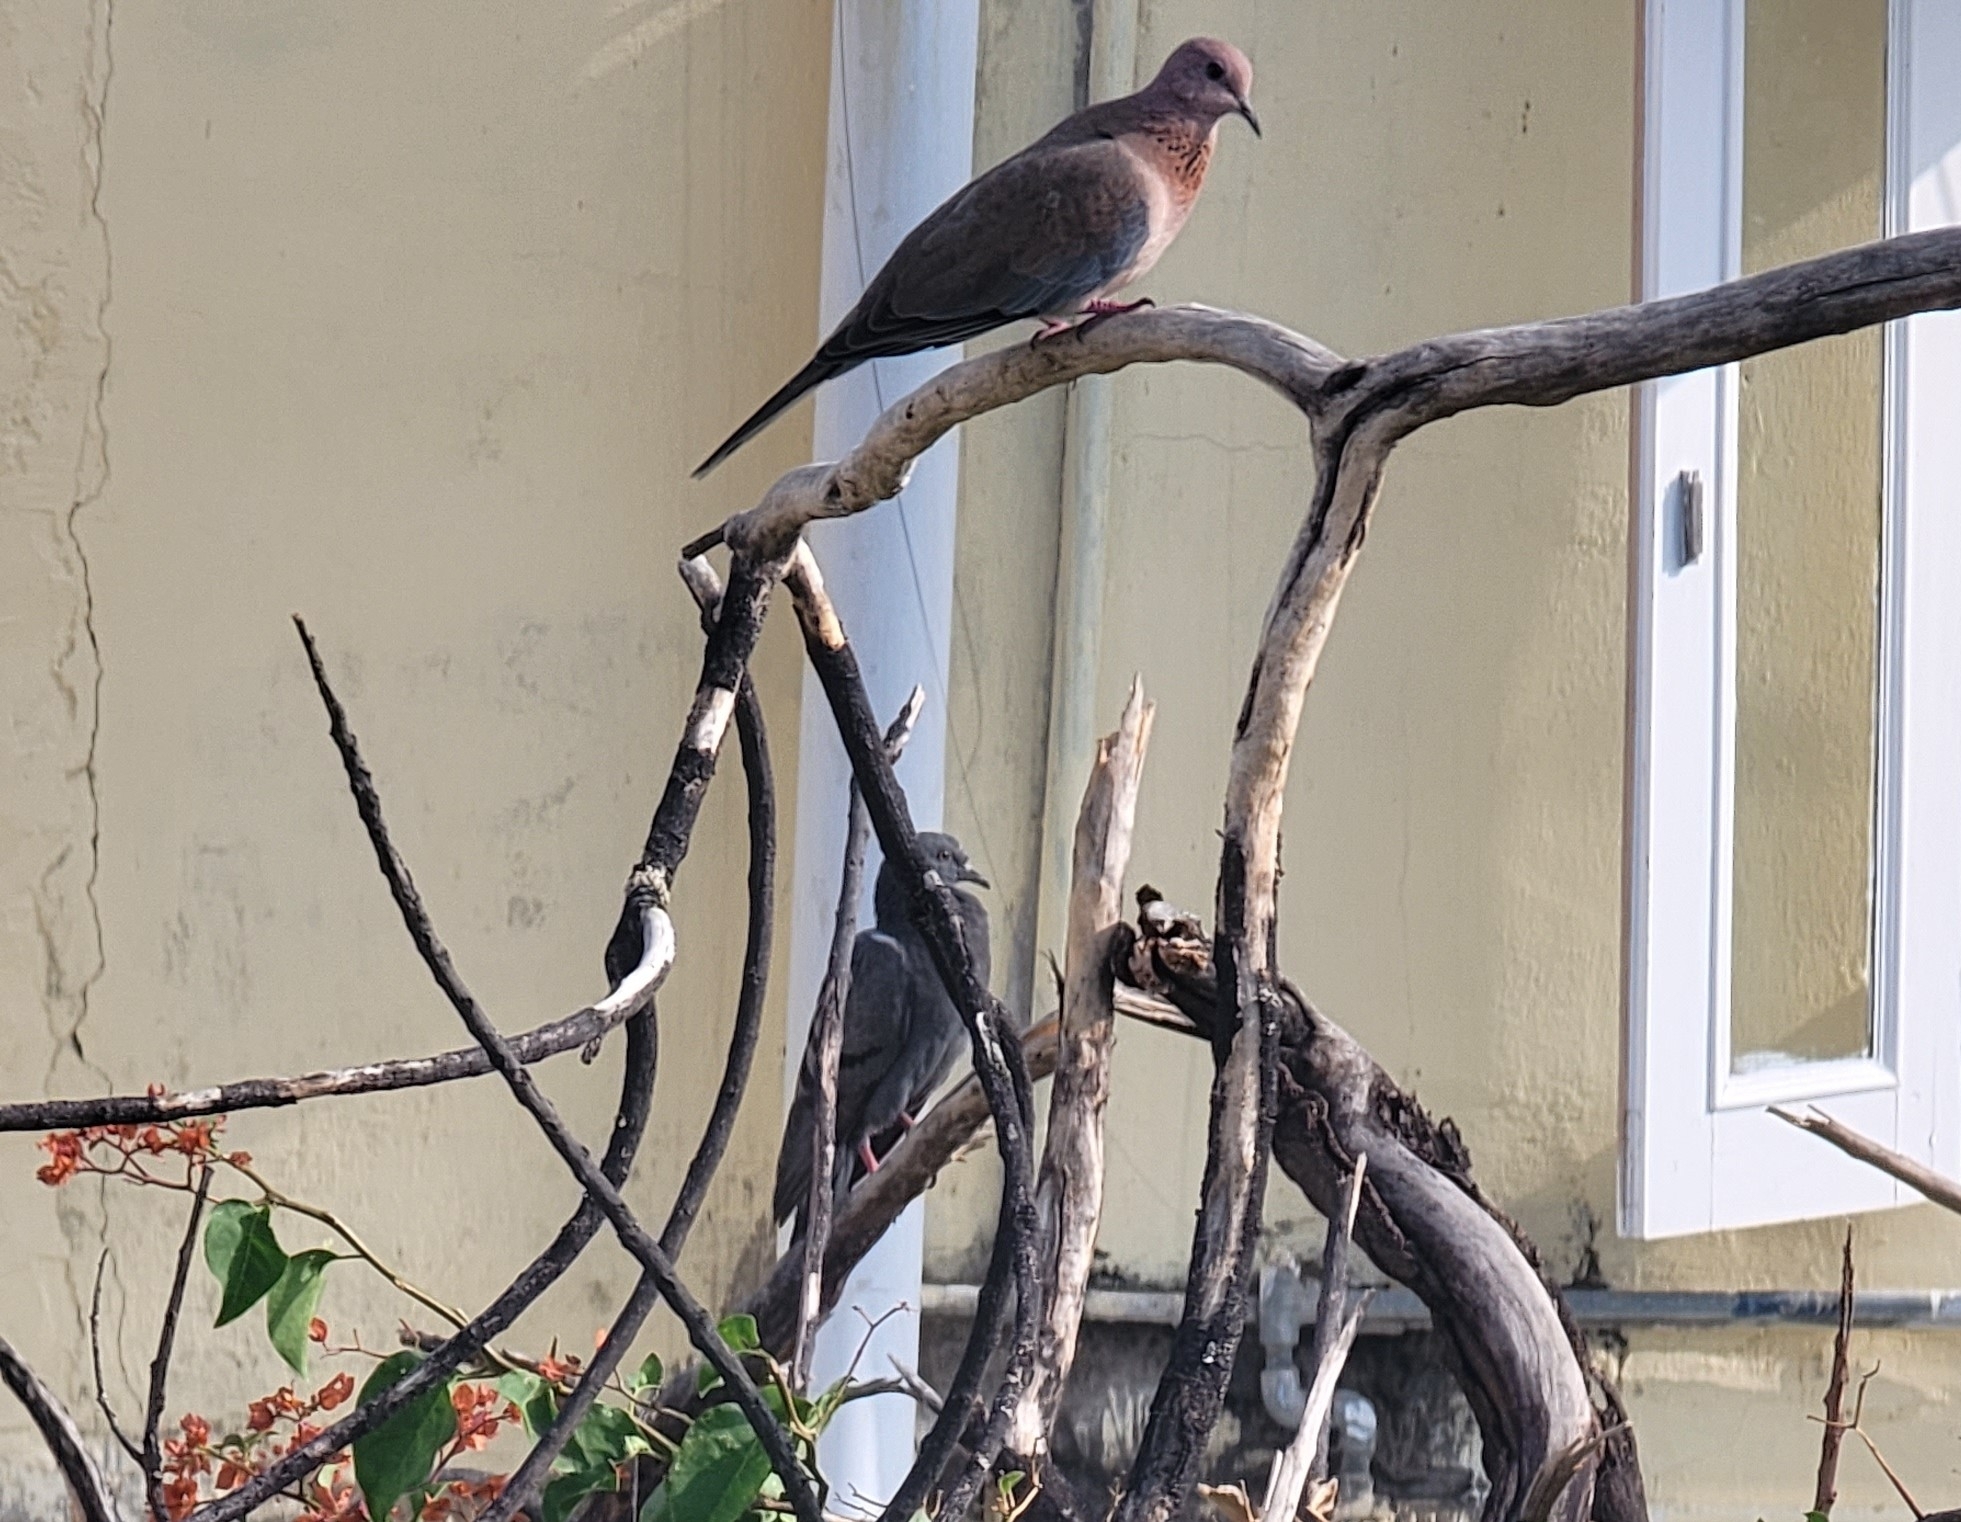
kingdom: Animalia
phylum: Chordata
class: Aves
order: Columbiformes
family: Columbidae
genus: Columba
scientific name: Columba livia
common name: Rock pigeon
